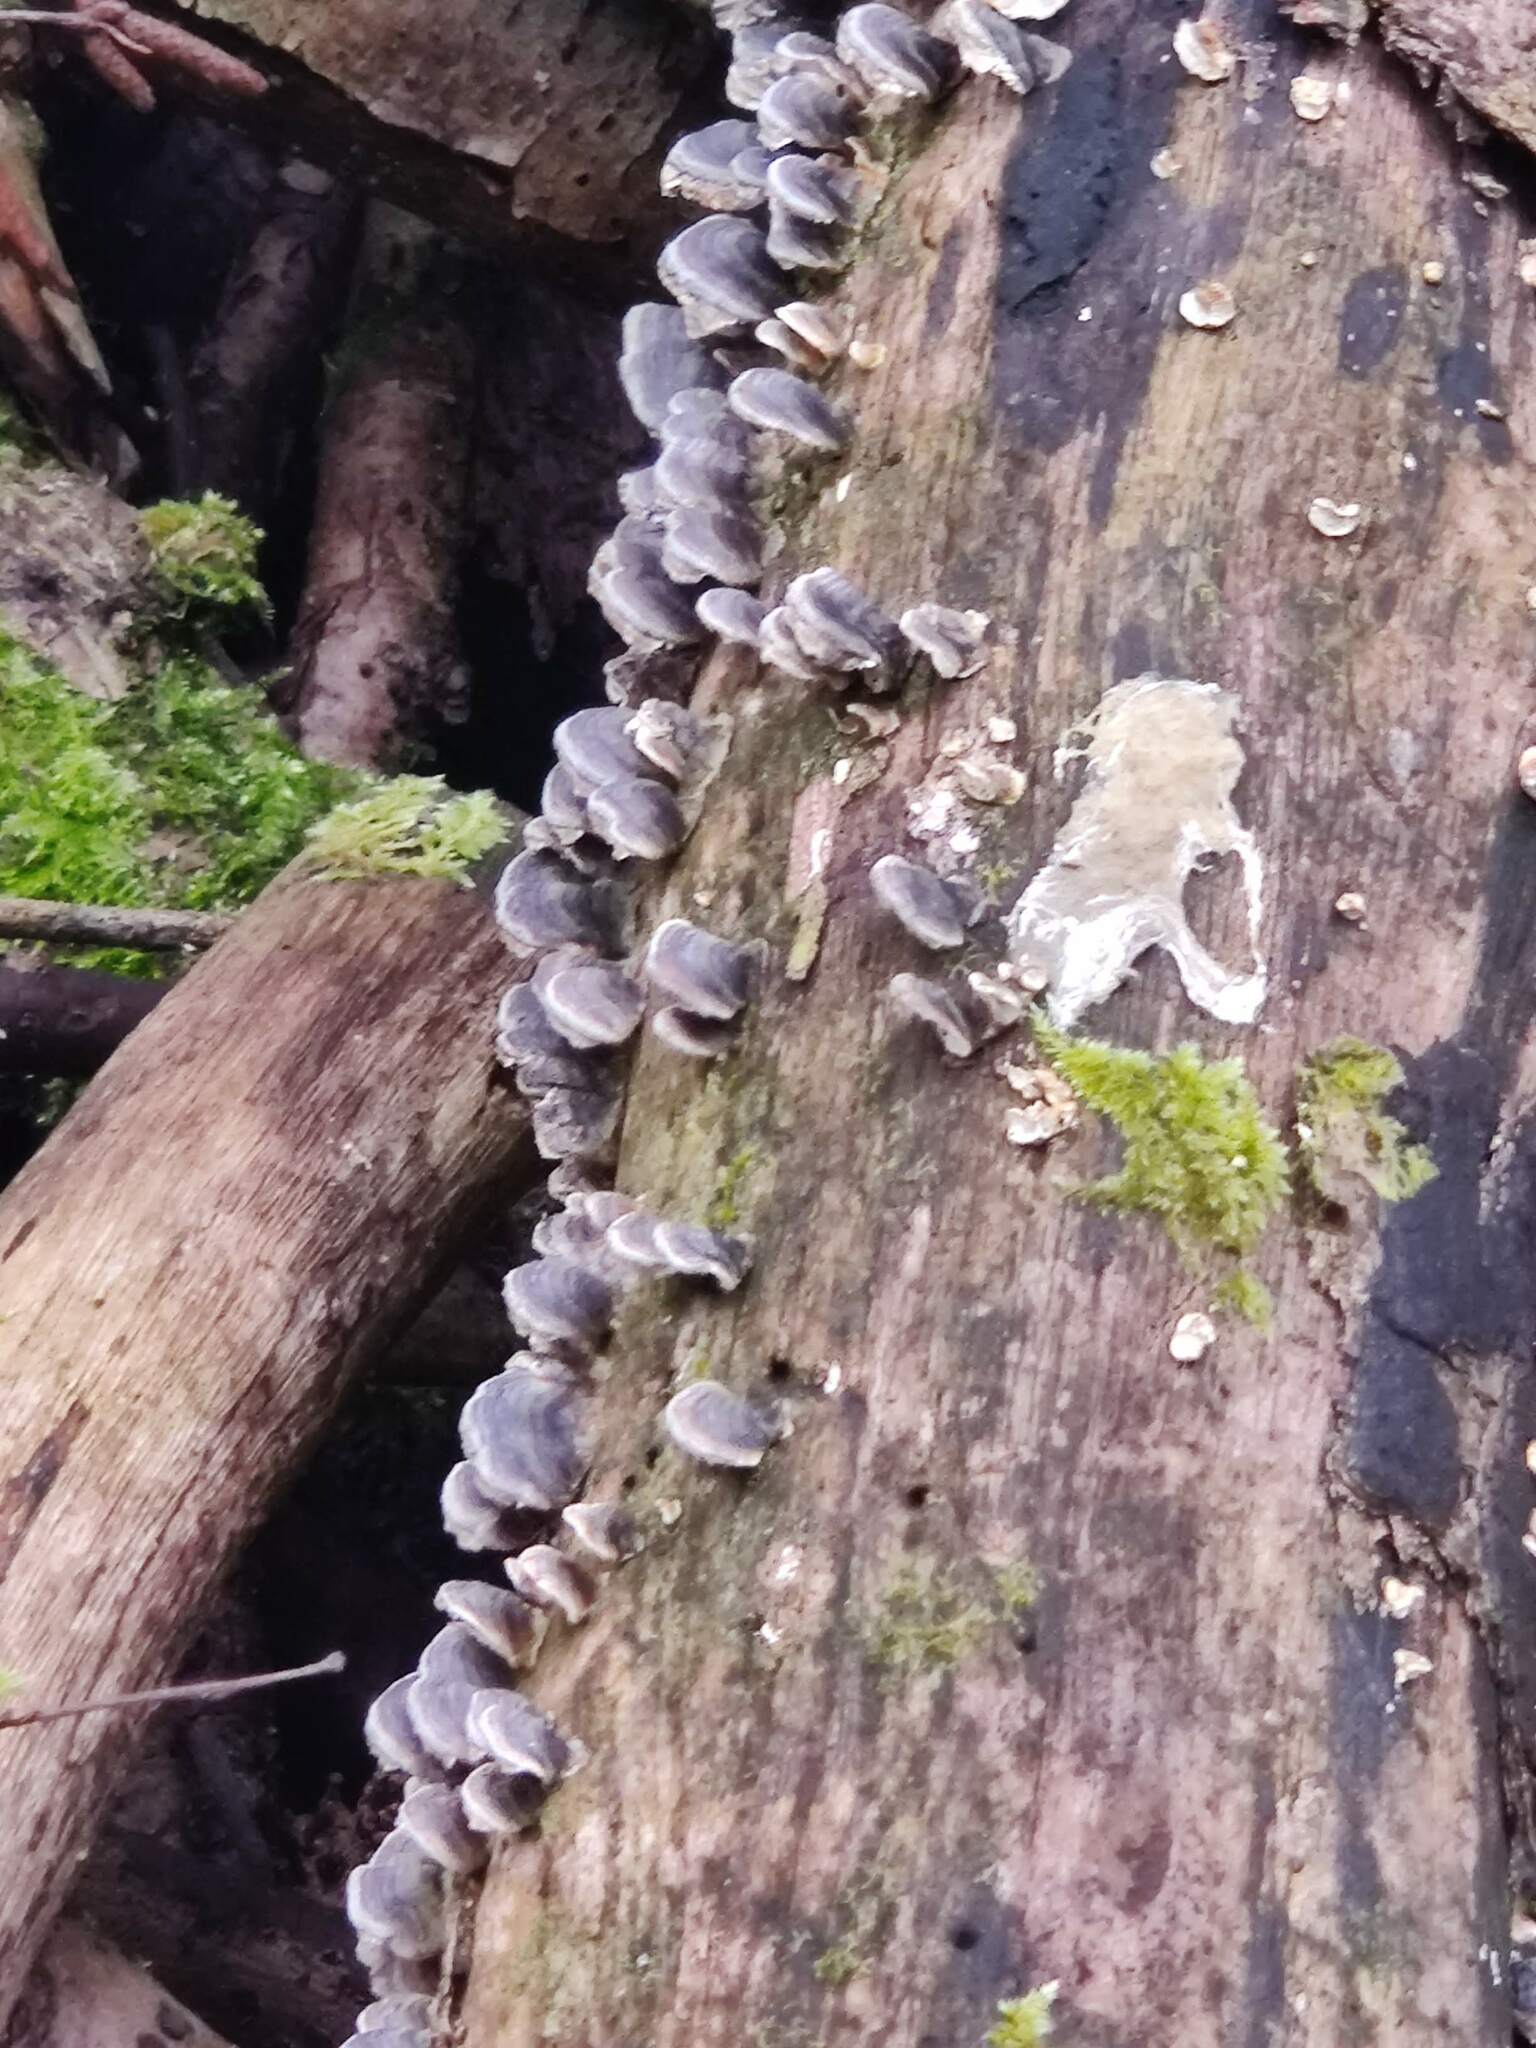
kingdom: Fungi
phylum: Basidiomycota
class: Agaricomycetes
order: Polyporales
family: Polyporaceae
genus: Trametes
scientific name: Trametes versicolor
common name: Turkeytail
